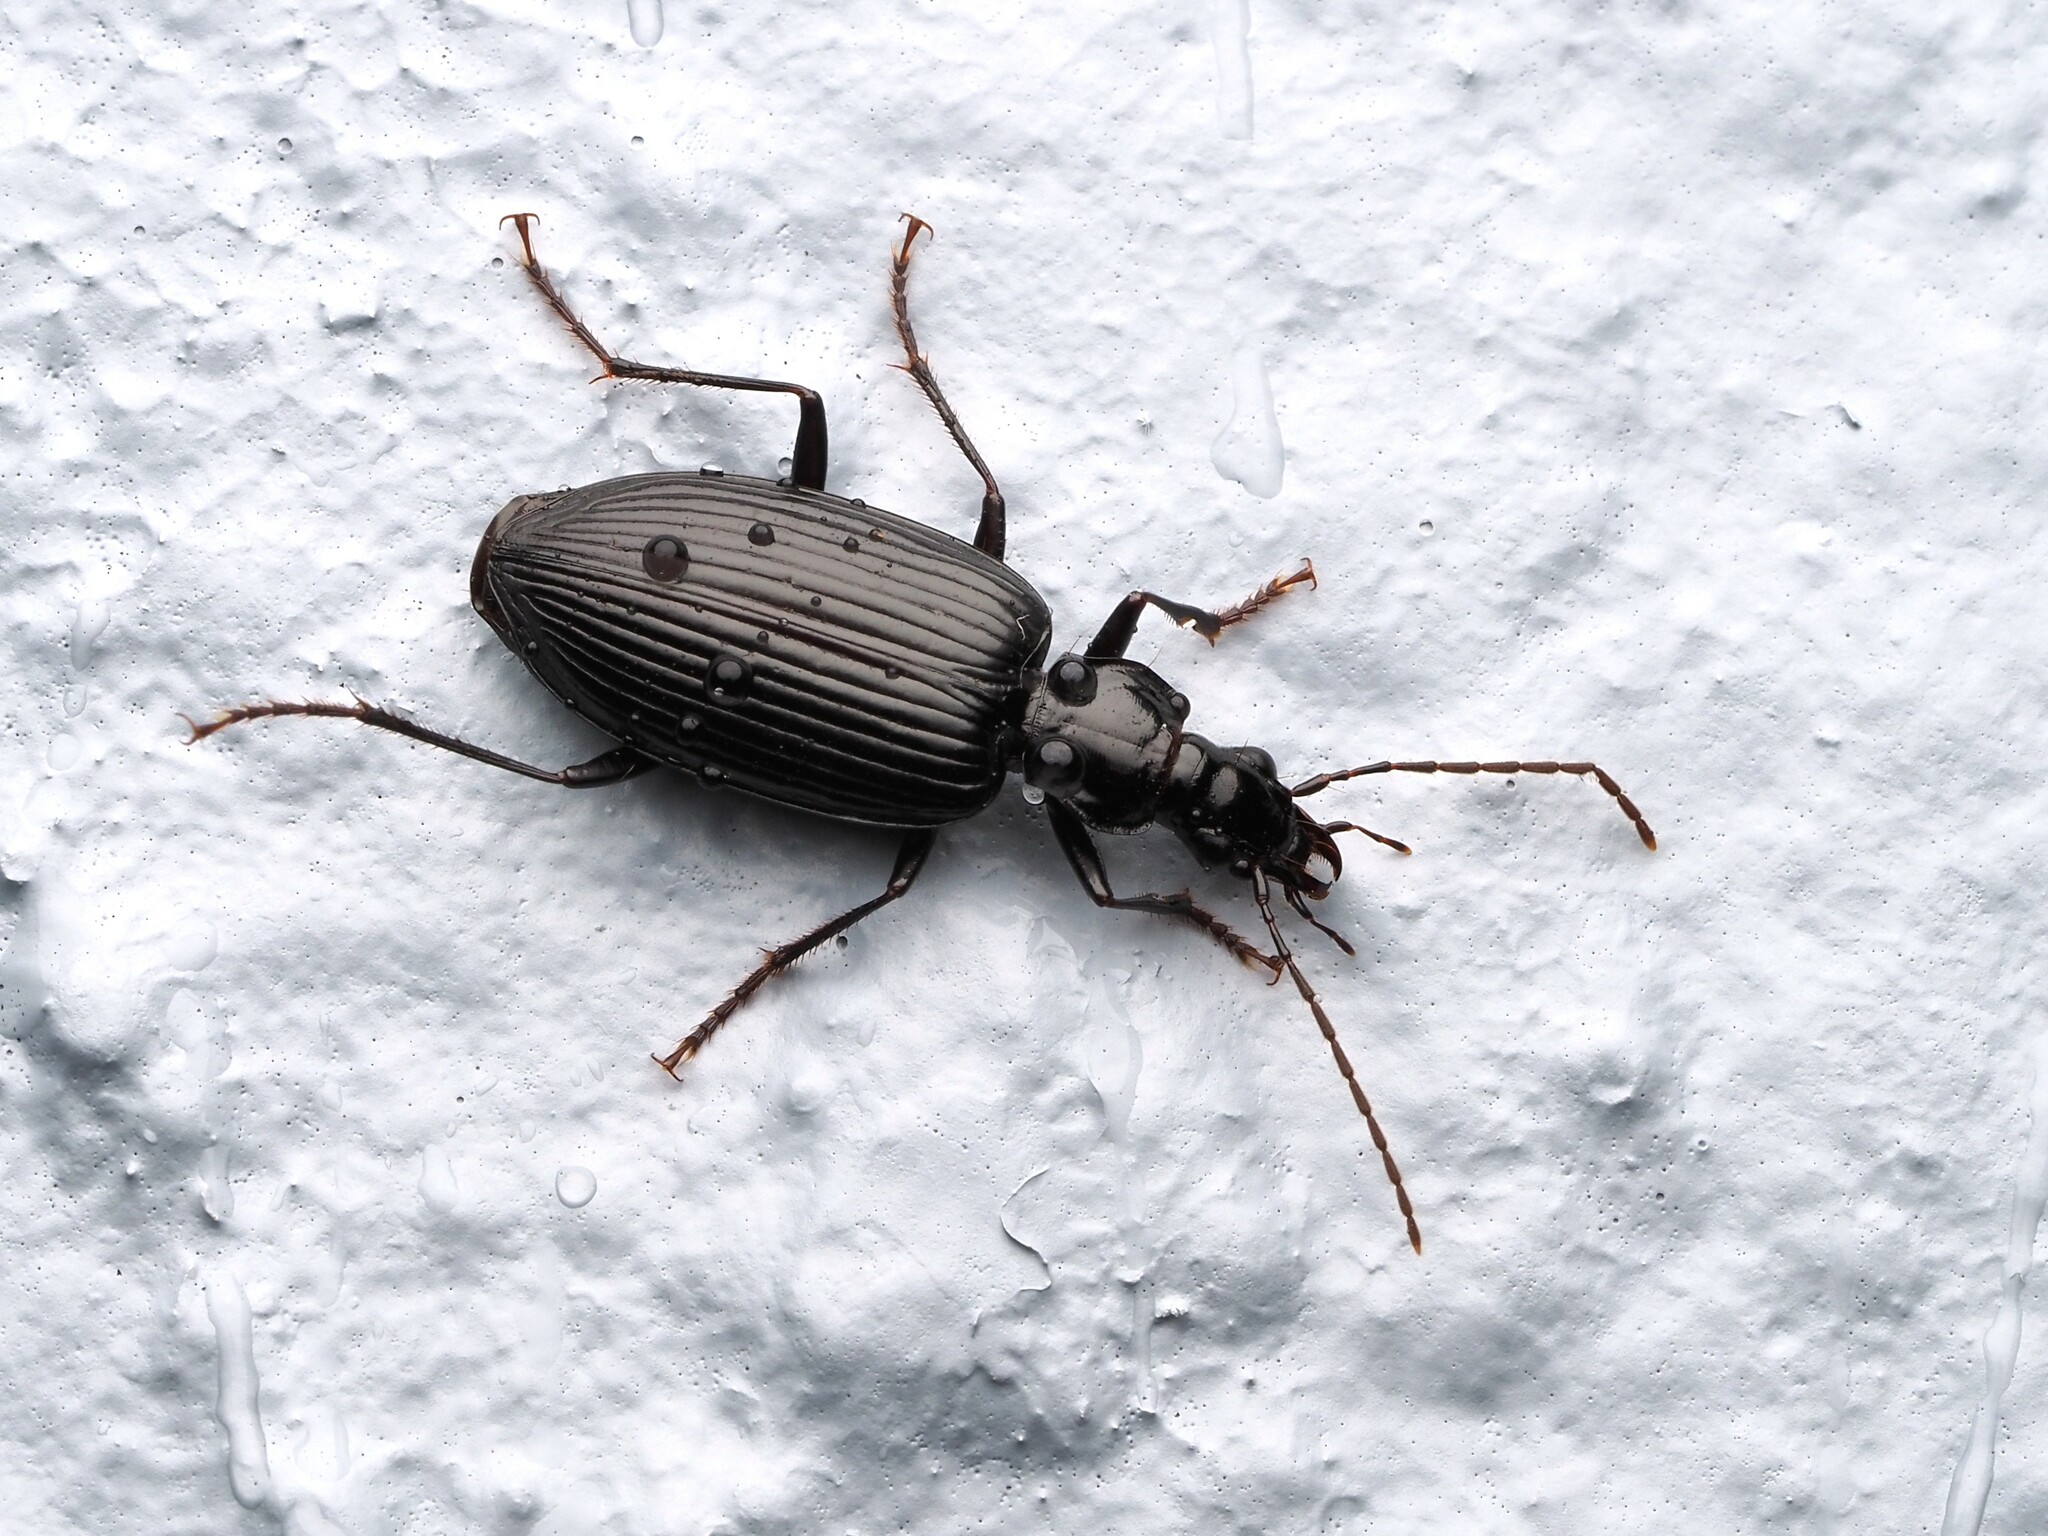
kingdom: Animalia
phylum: Arthropoda
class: Insecta
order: Coleoptera
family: Carabidae
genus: Platynus
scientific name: Platynus macropterus
